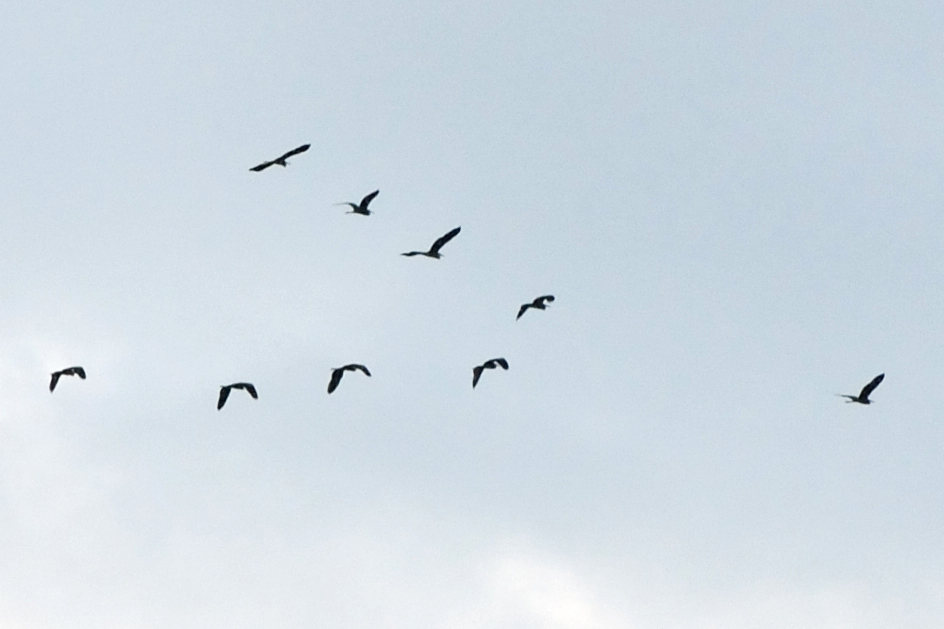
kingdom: Animalia
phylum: Chordata
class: Aves
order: Pelecaniformes
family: Ardeidae
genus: Ardea
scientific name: Ardea cinerea
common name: Grey heron
